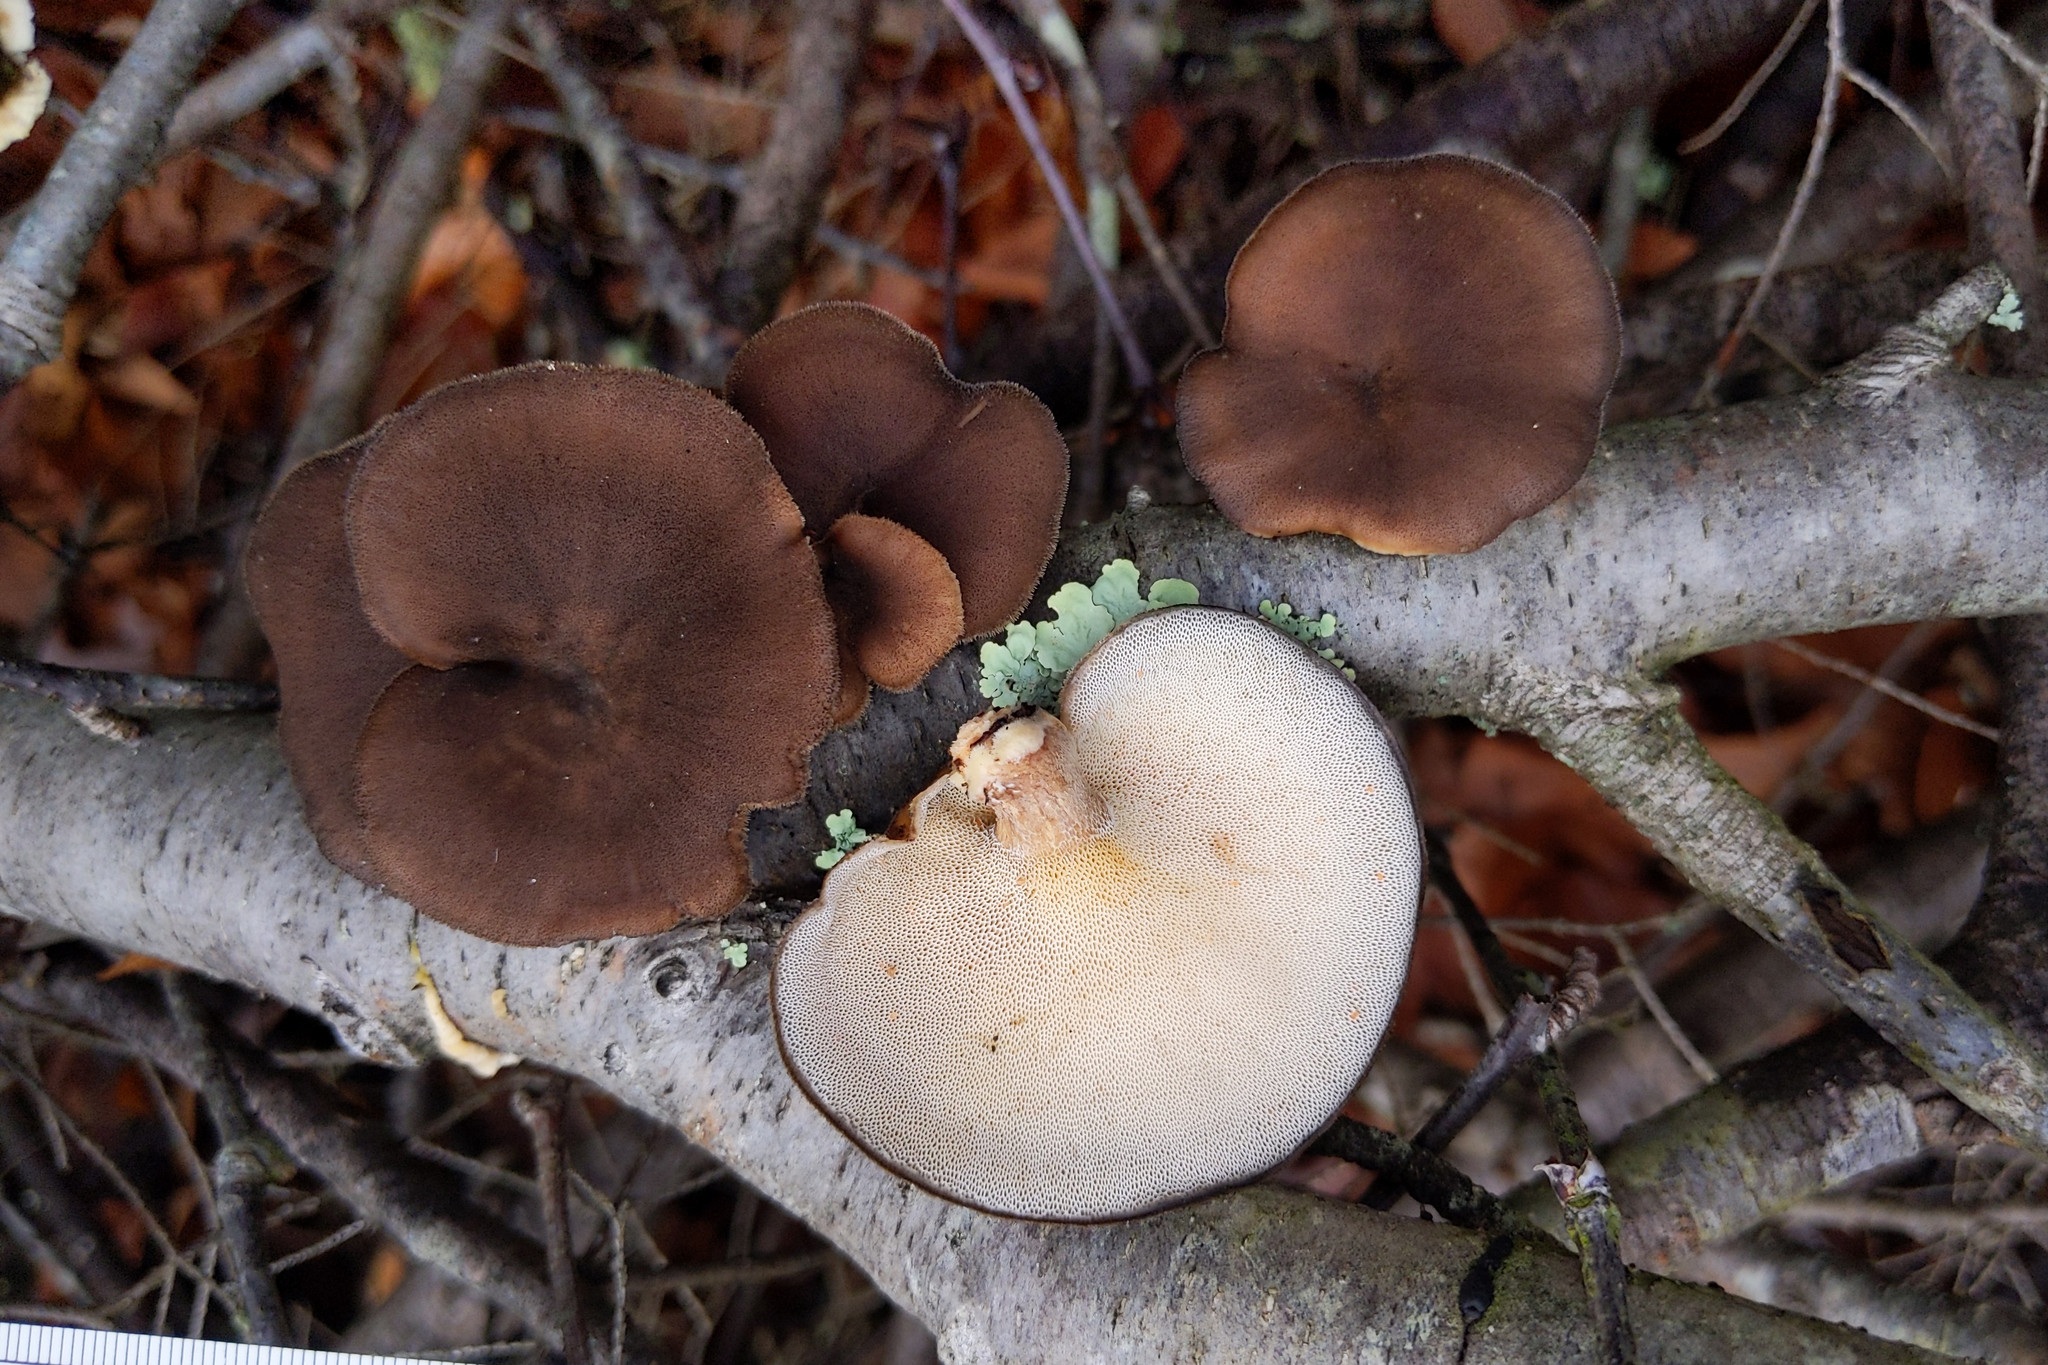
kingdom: Fungi
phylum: Basidiomycota
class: Agaricomycetes
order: Polyporales
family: Polyporaceae
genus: Lentinus
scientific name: Lentinus brumalis
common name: Winter polypore
